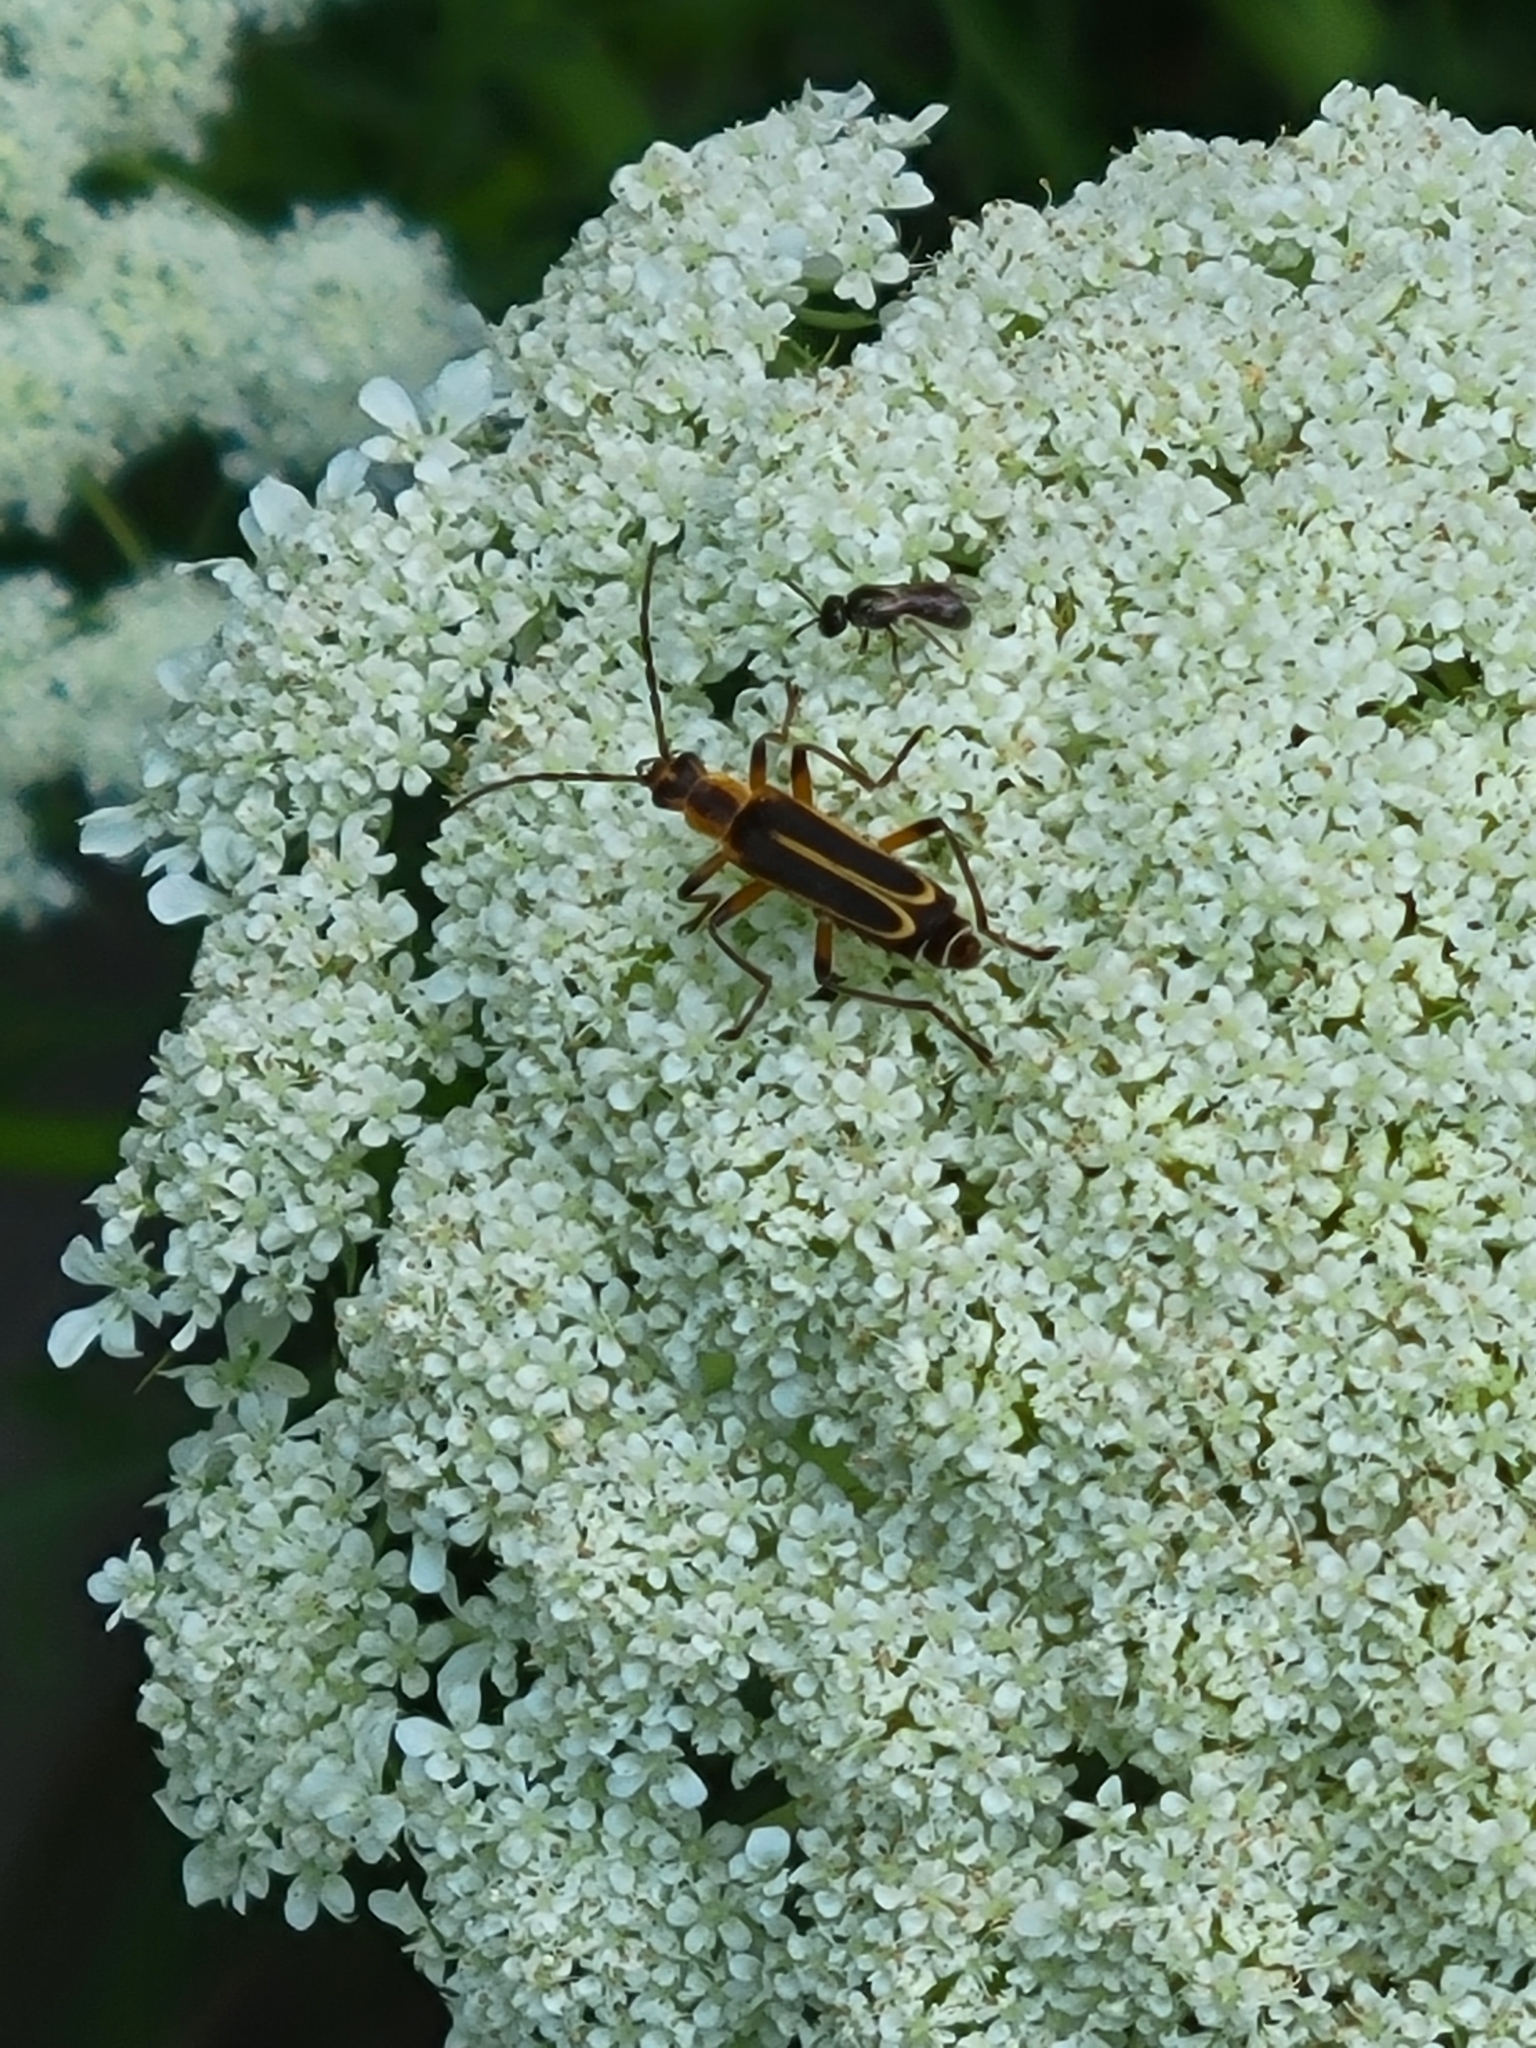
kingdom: Animalia
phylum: Arthropoda
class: Insecta
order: Coleoptera
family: Cantharidae
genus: Chauliognathus
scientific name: Chauliognathus marginatus
